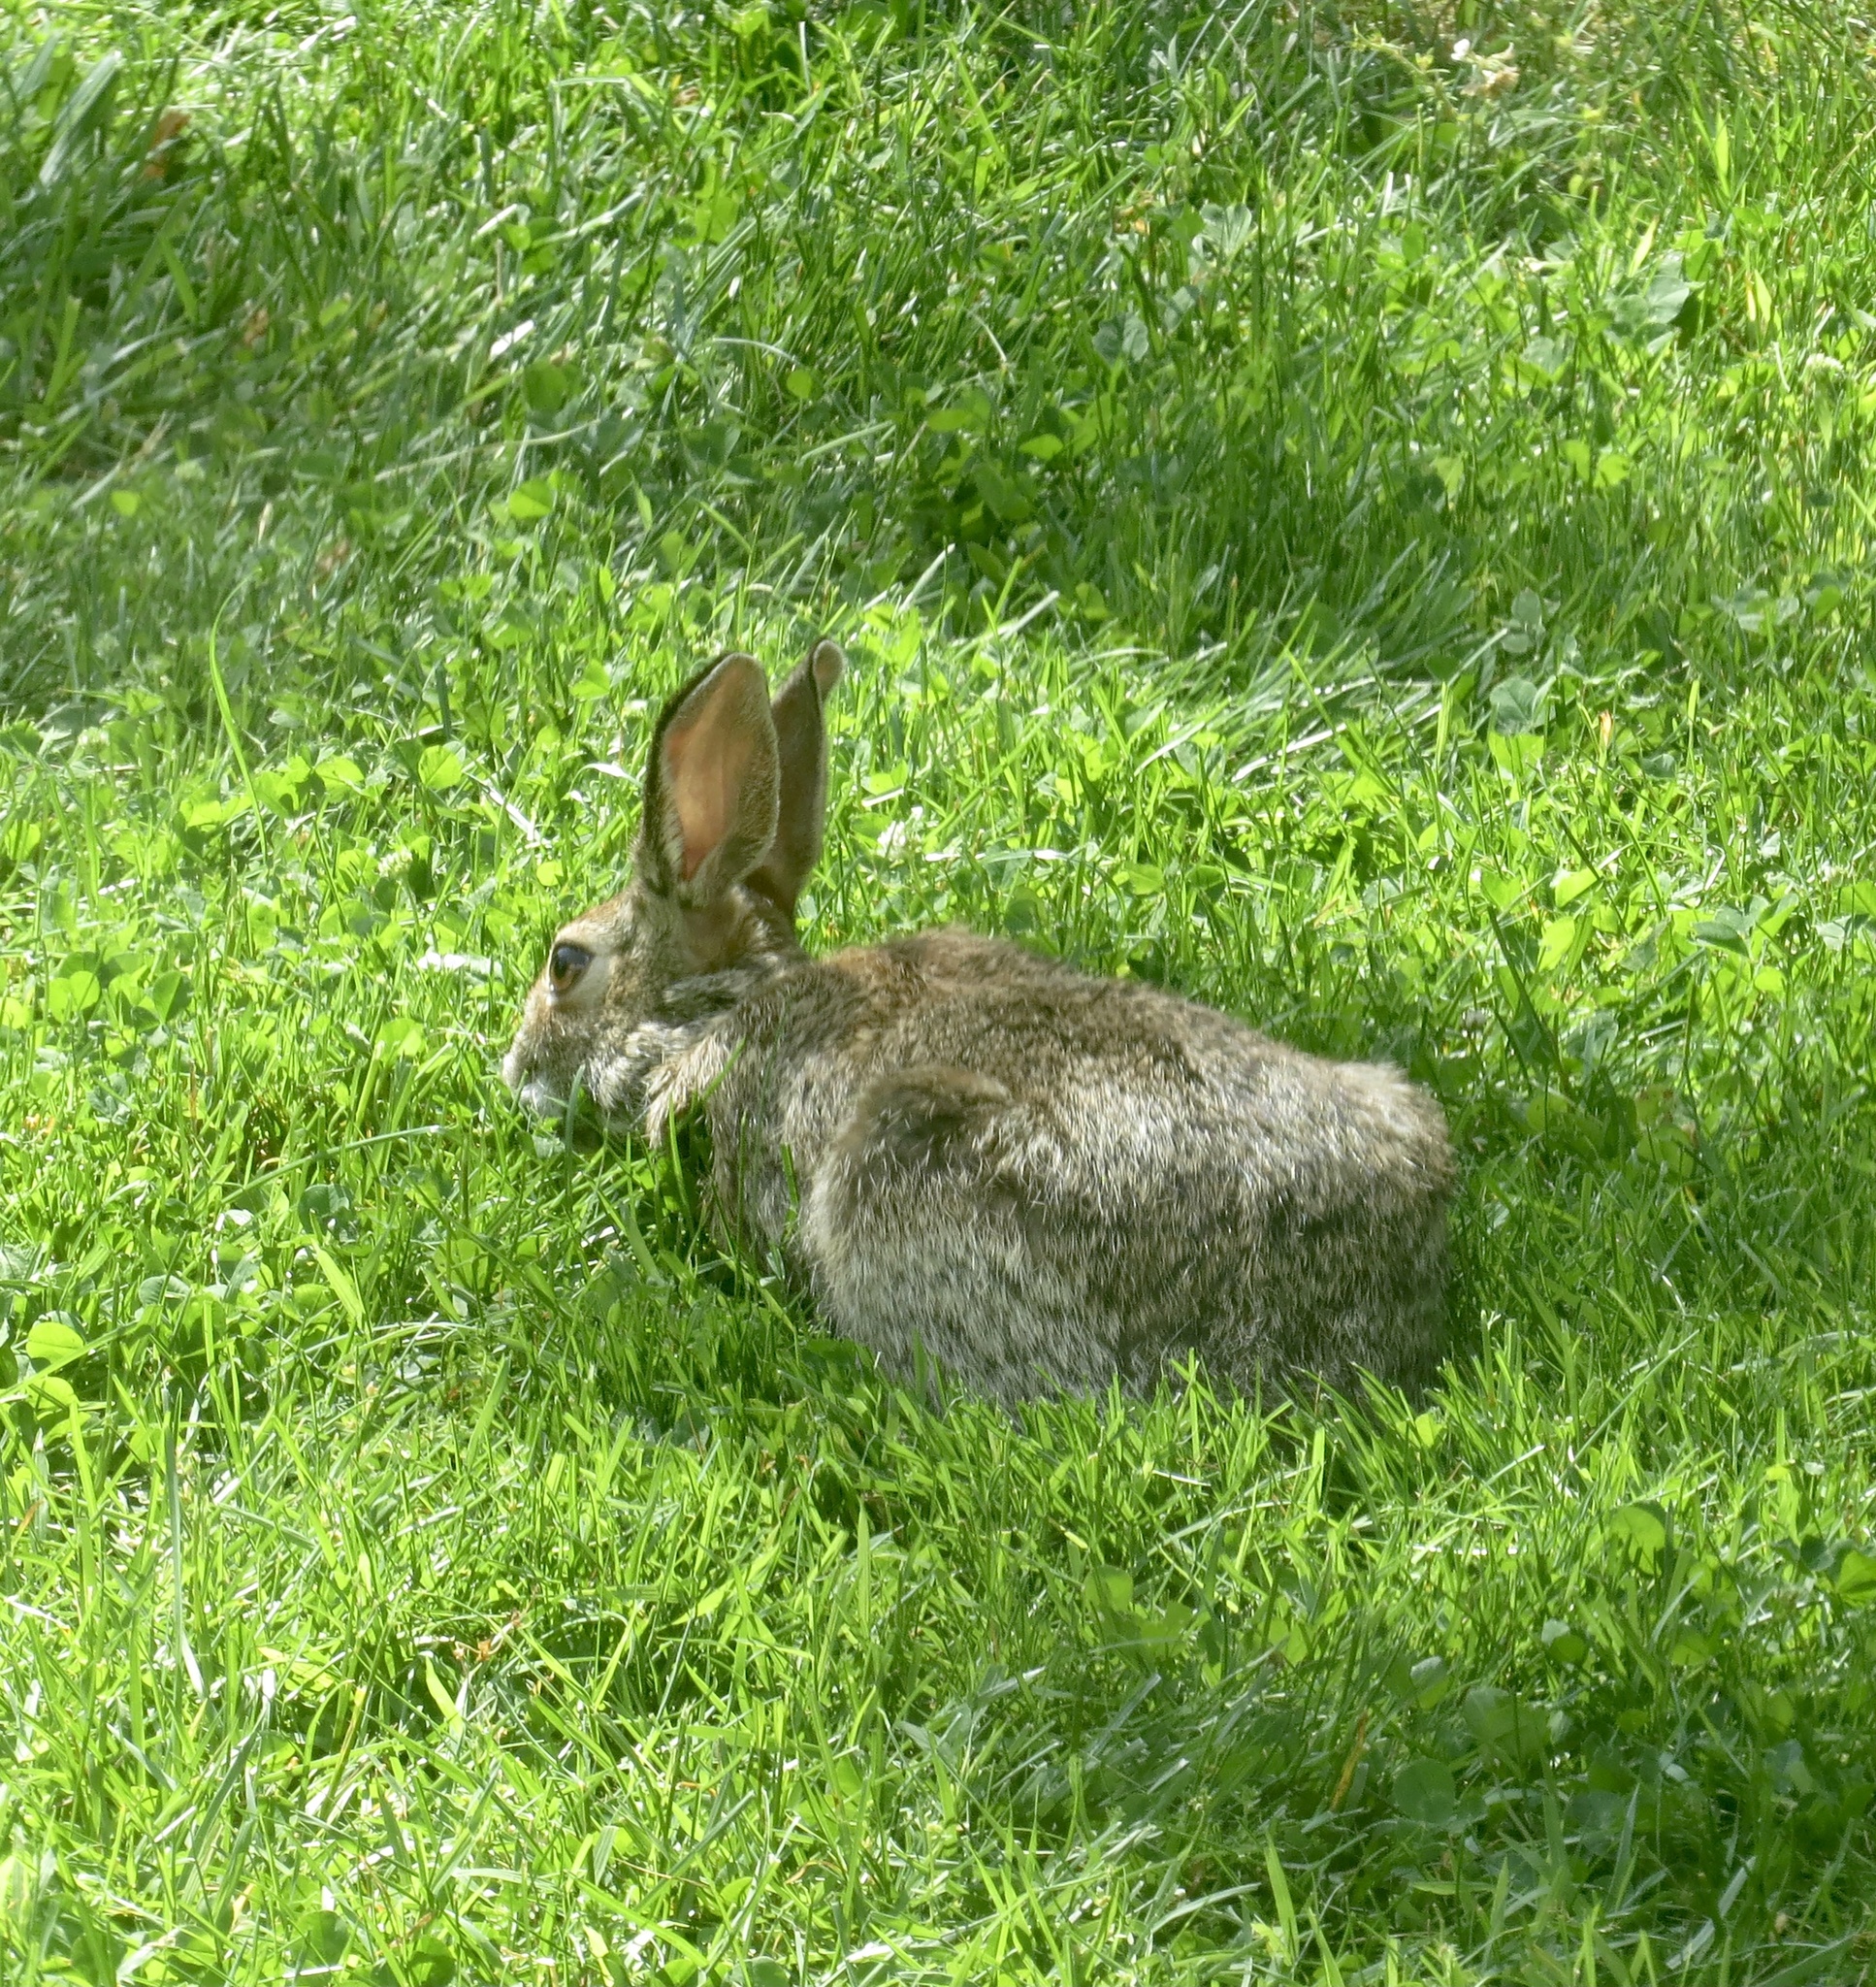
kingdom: Animalia
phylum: Chordata
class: Mammalia
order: Lagomorpha
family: Leporidae
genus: Sylvilagus
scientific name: Sylvilagus floridanus
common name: Eastern cottontail
